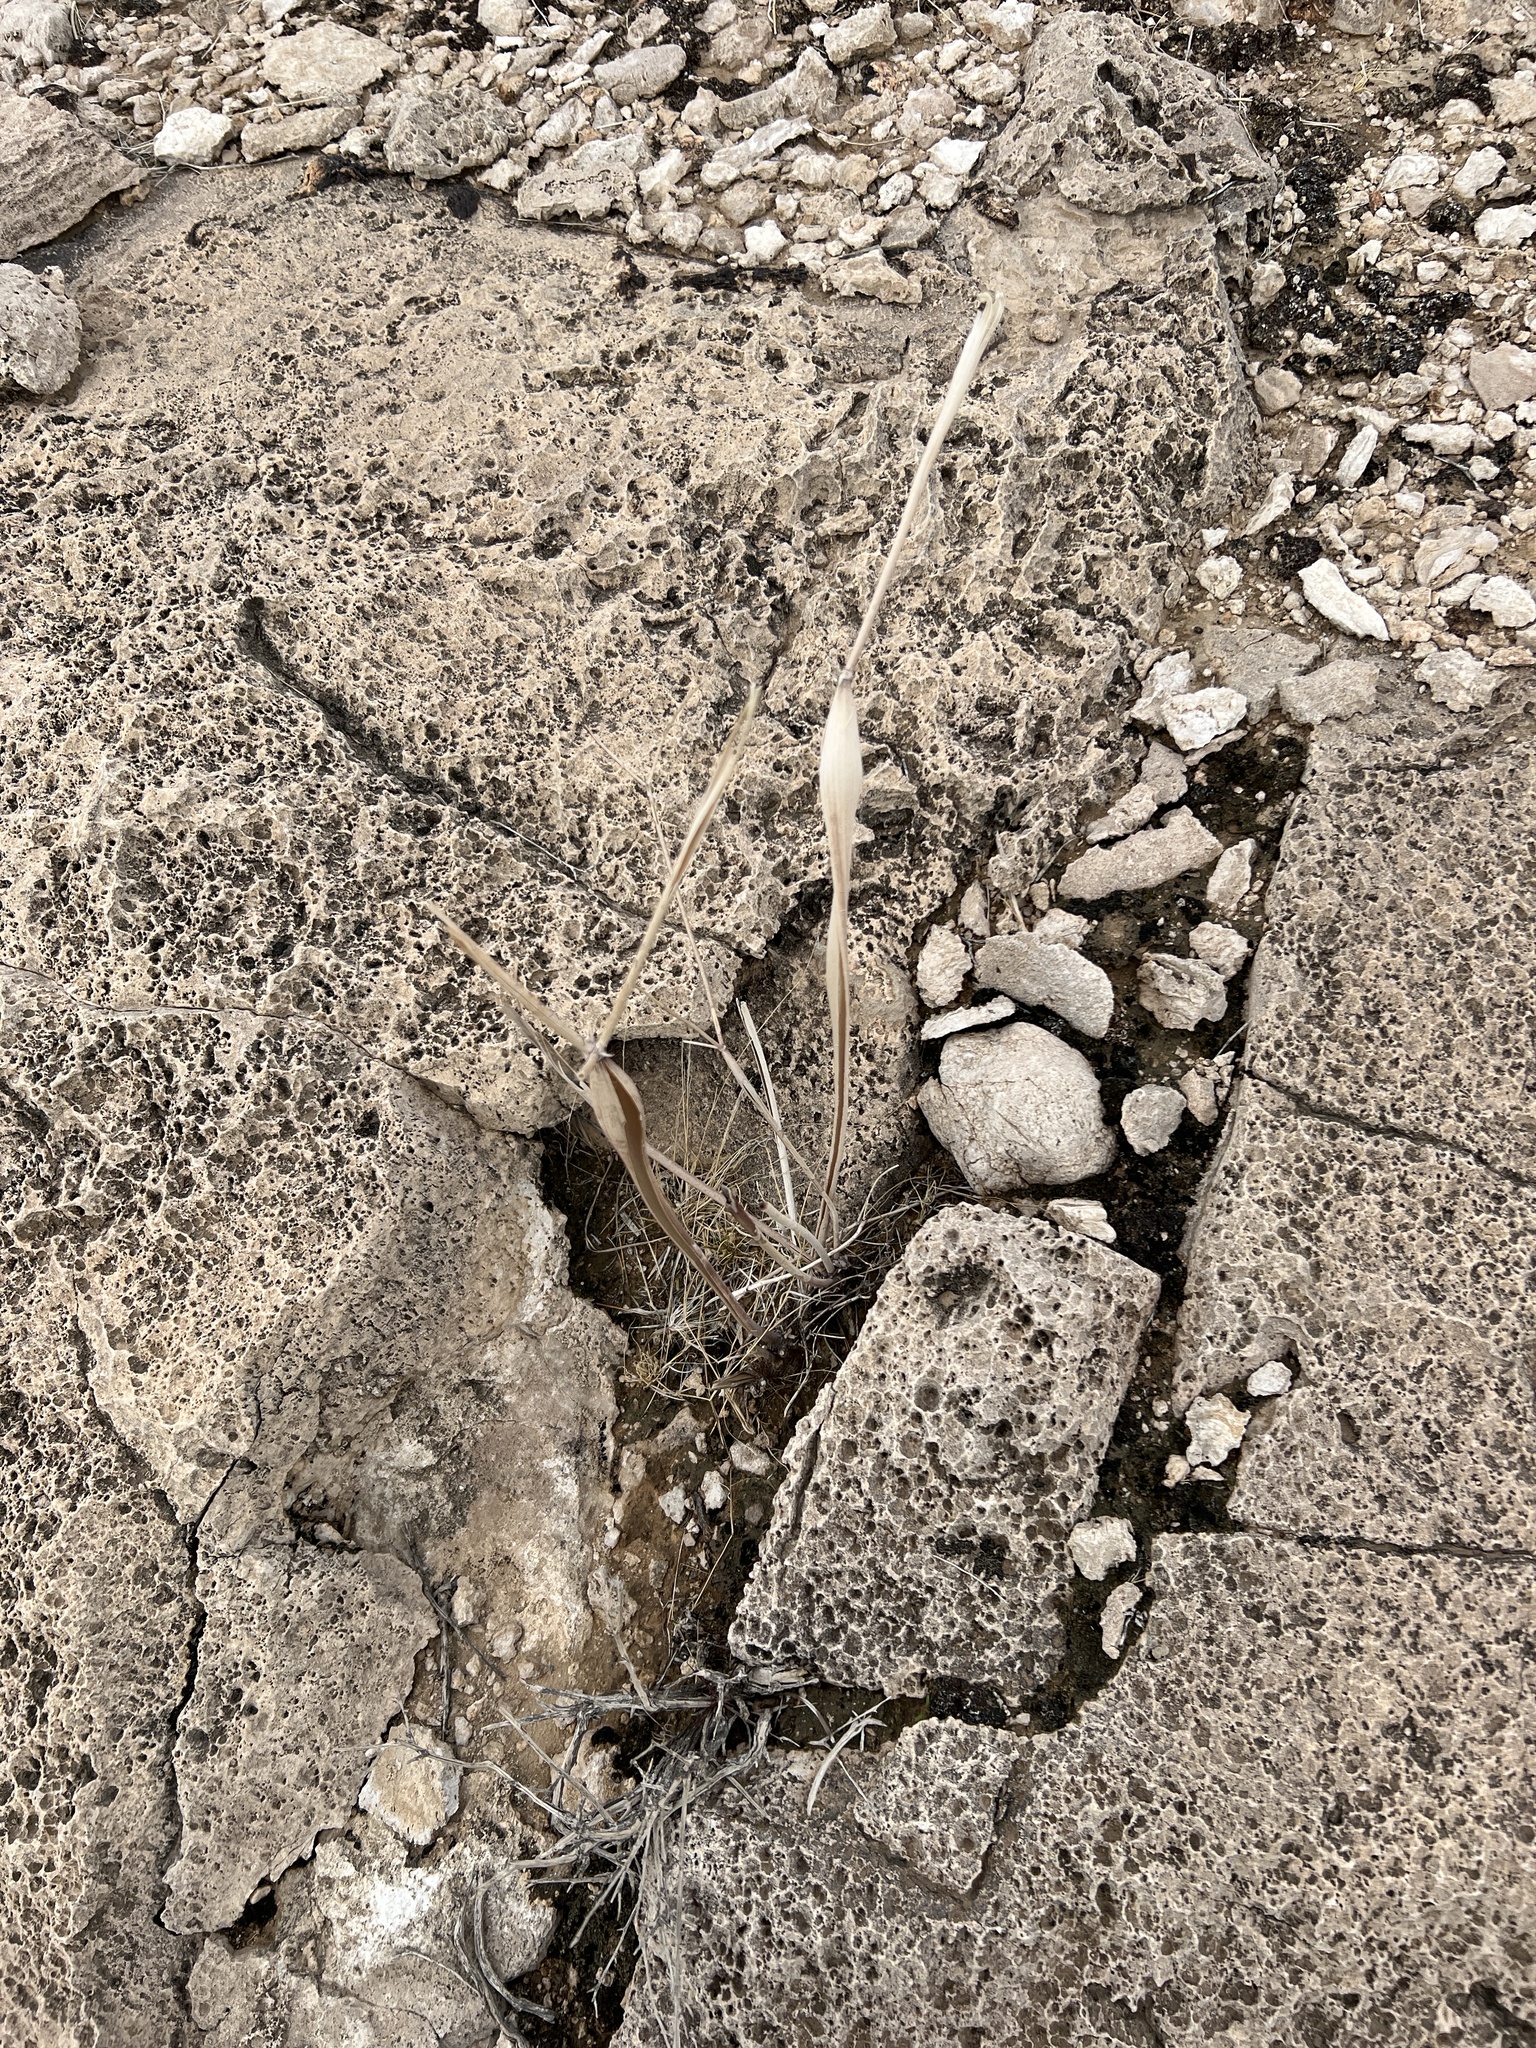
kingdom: Plantae
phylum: Tracheophyta
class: Magnoliopsida
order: Caryophyllales
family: Polygonaceae
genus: Eriogonum
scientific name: Eriogonum inflatum
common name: Desert trumpet
